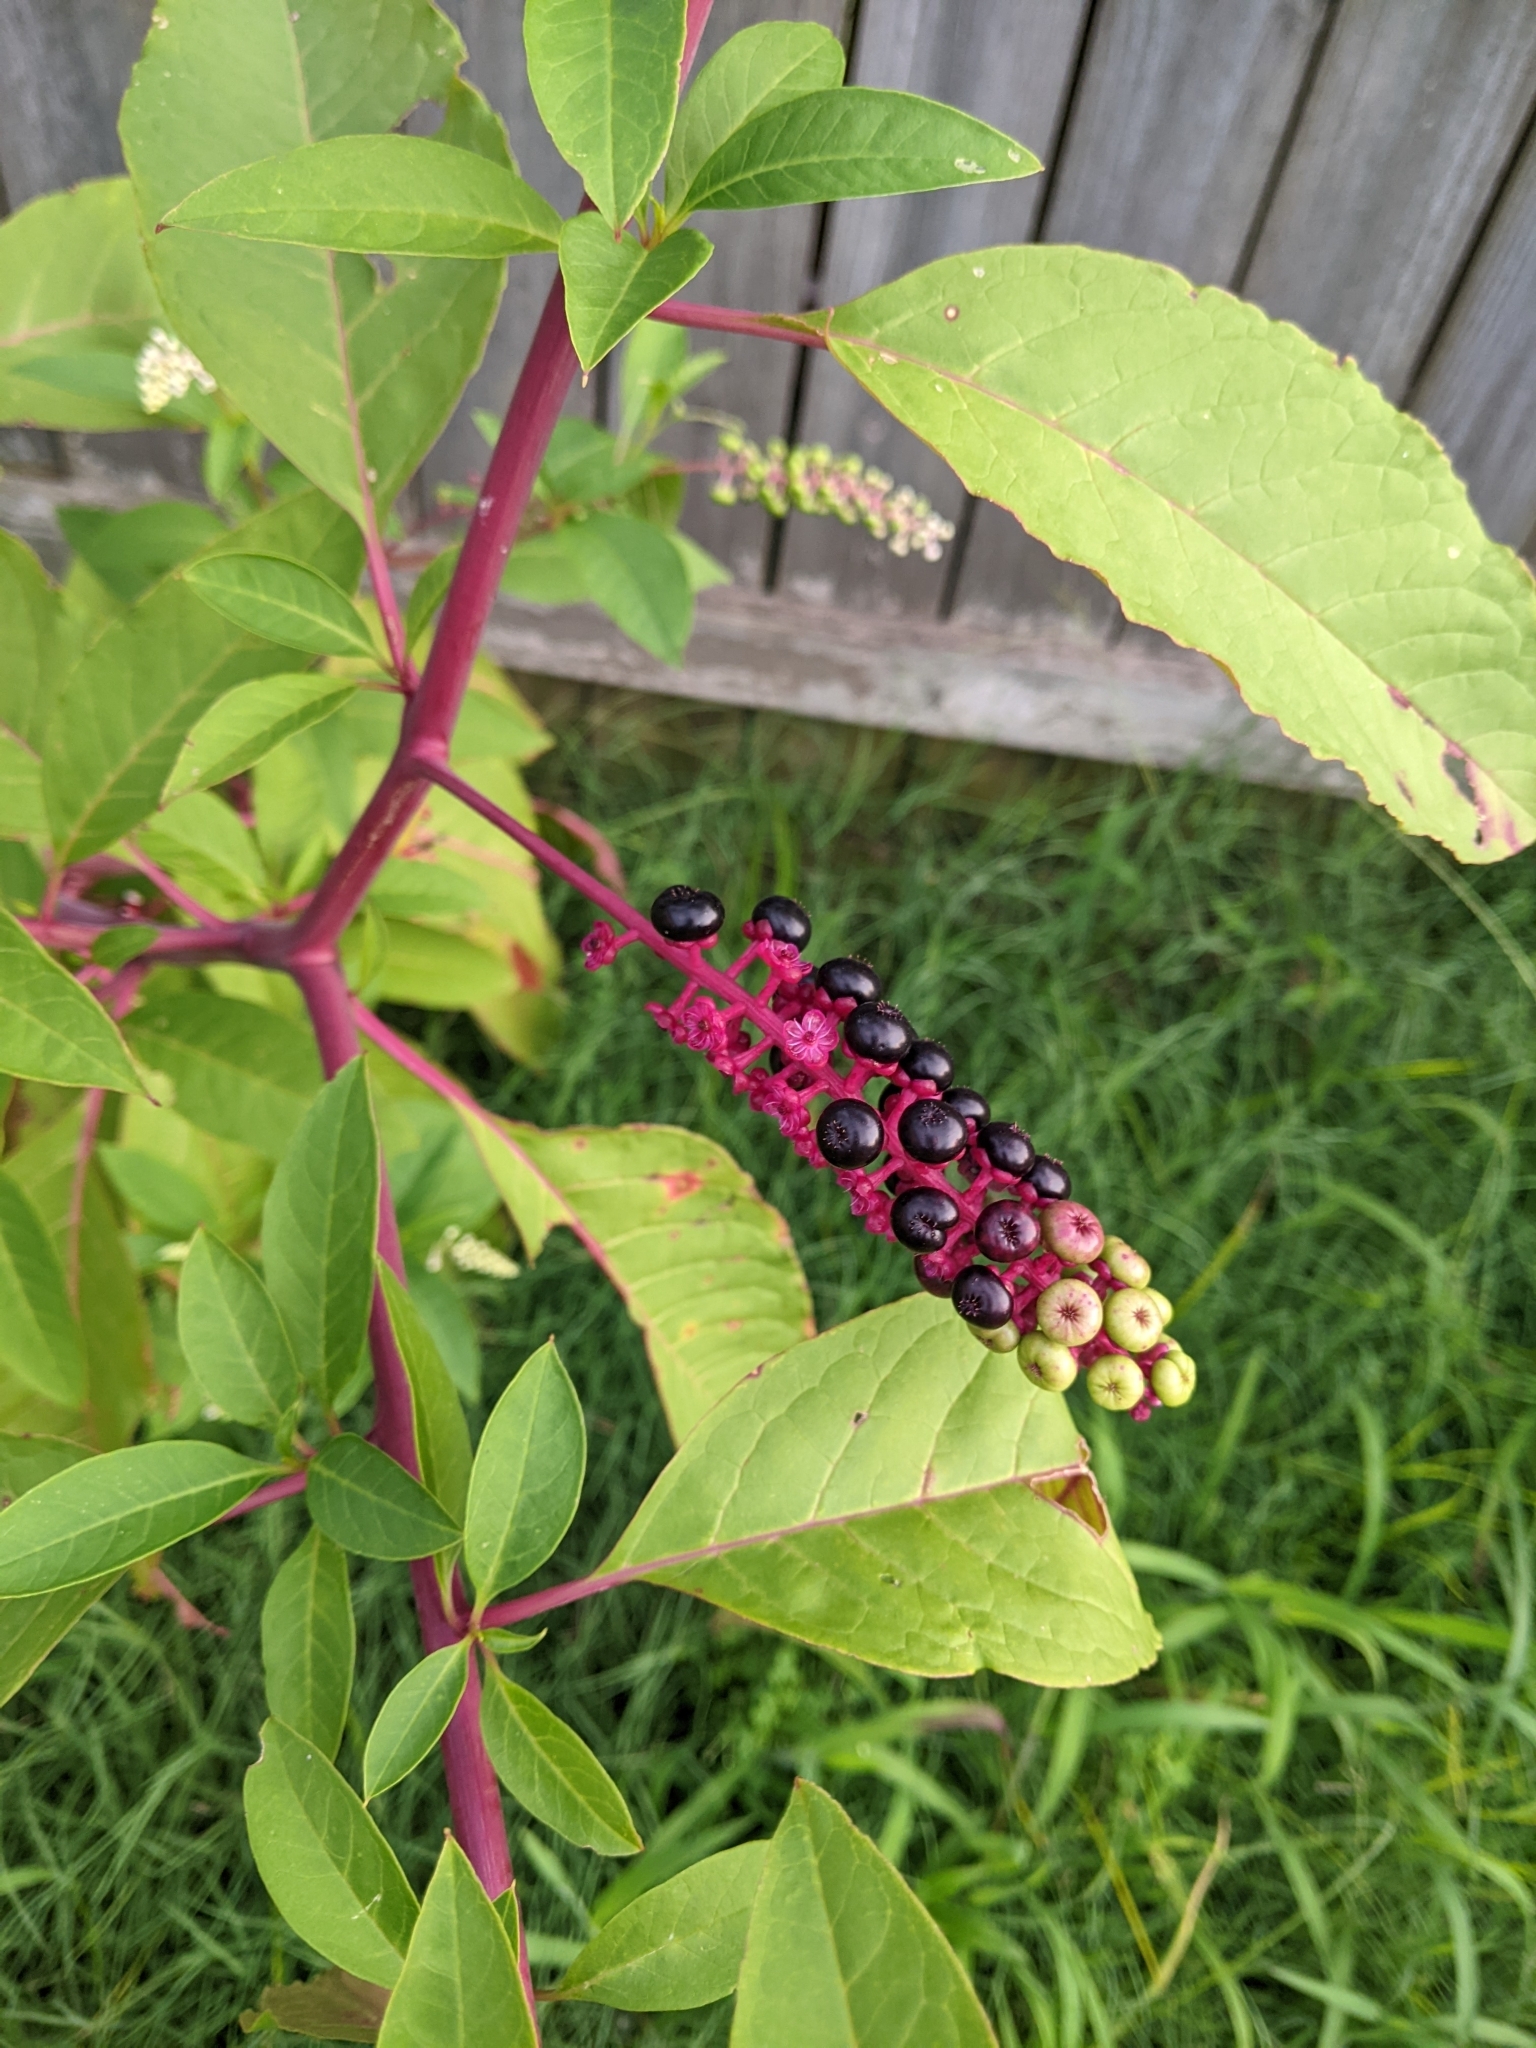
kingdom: Plantae
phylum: Tracheophyta
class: Magnoliopsida
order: Caryophyllales
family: Phytolaccaceae
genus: Phytolacca
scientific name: Phytolacca americana
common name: American pokeweed
